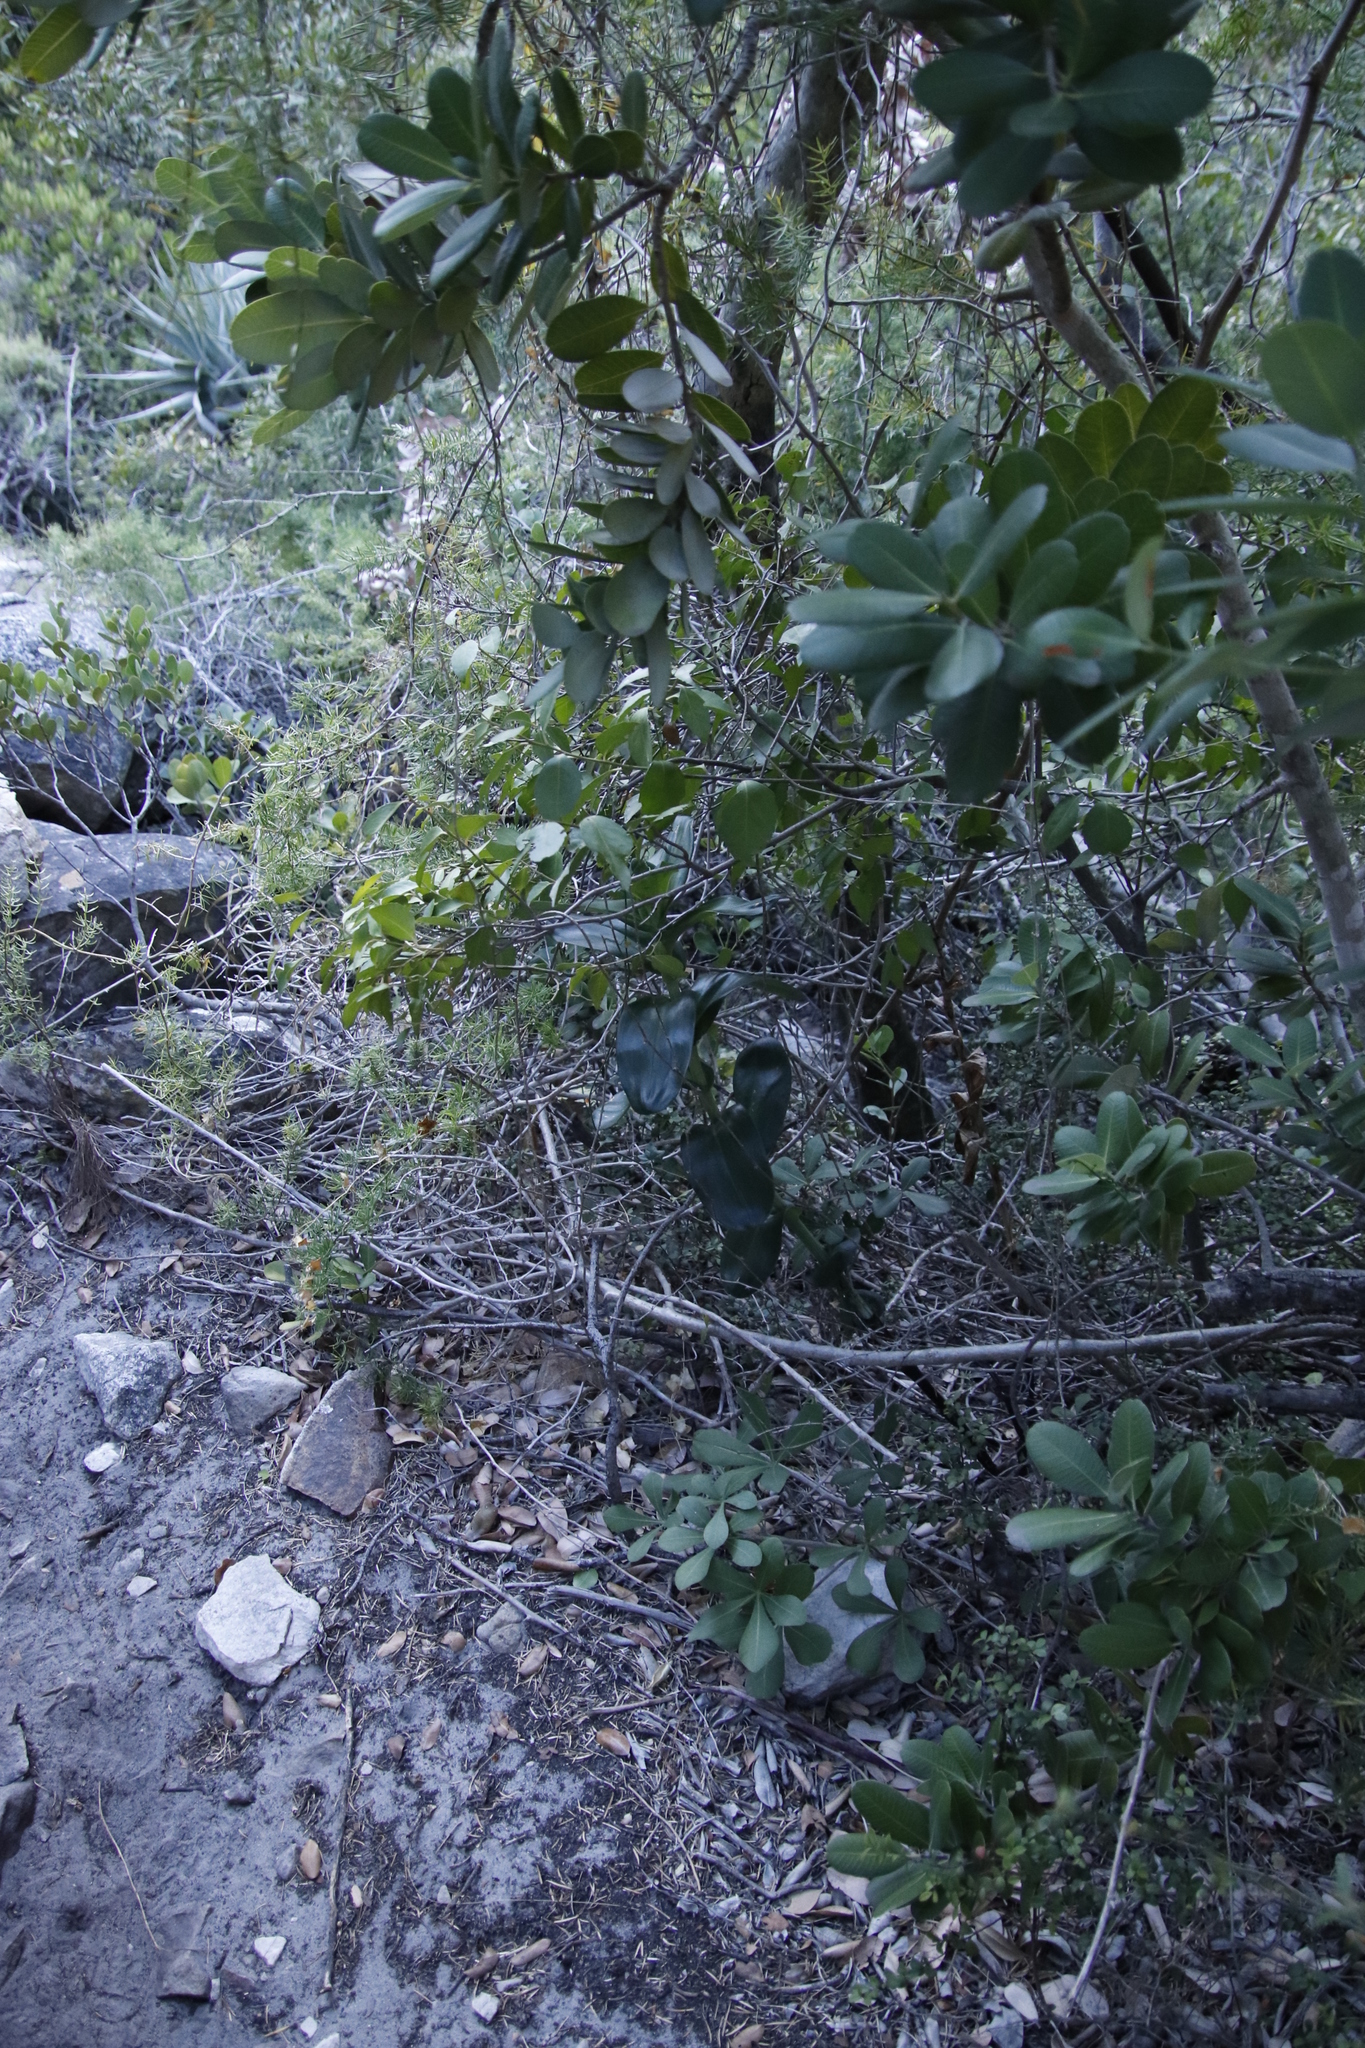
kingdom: Plantae
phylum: Tracheophyta
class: Liliopsida
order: Asparagales
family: Orchidaceae
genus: Bonatea
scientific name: Bonatea speciosa
